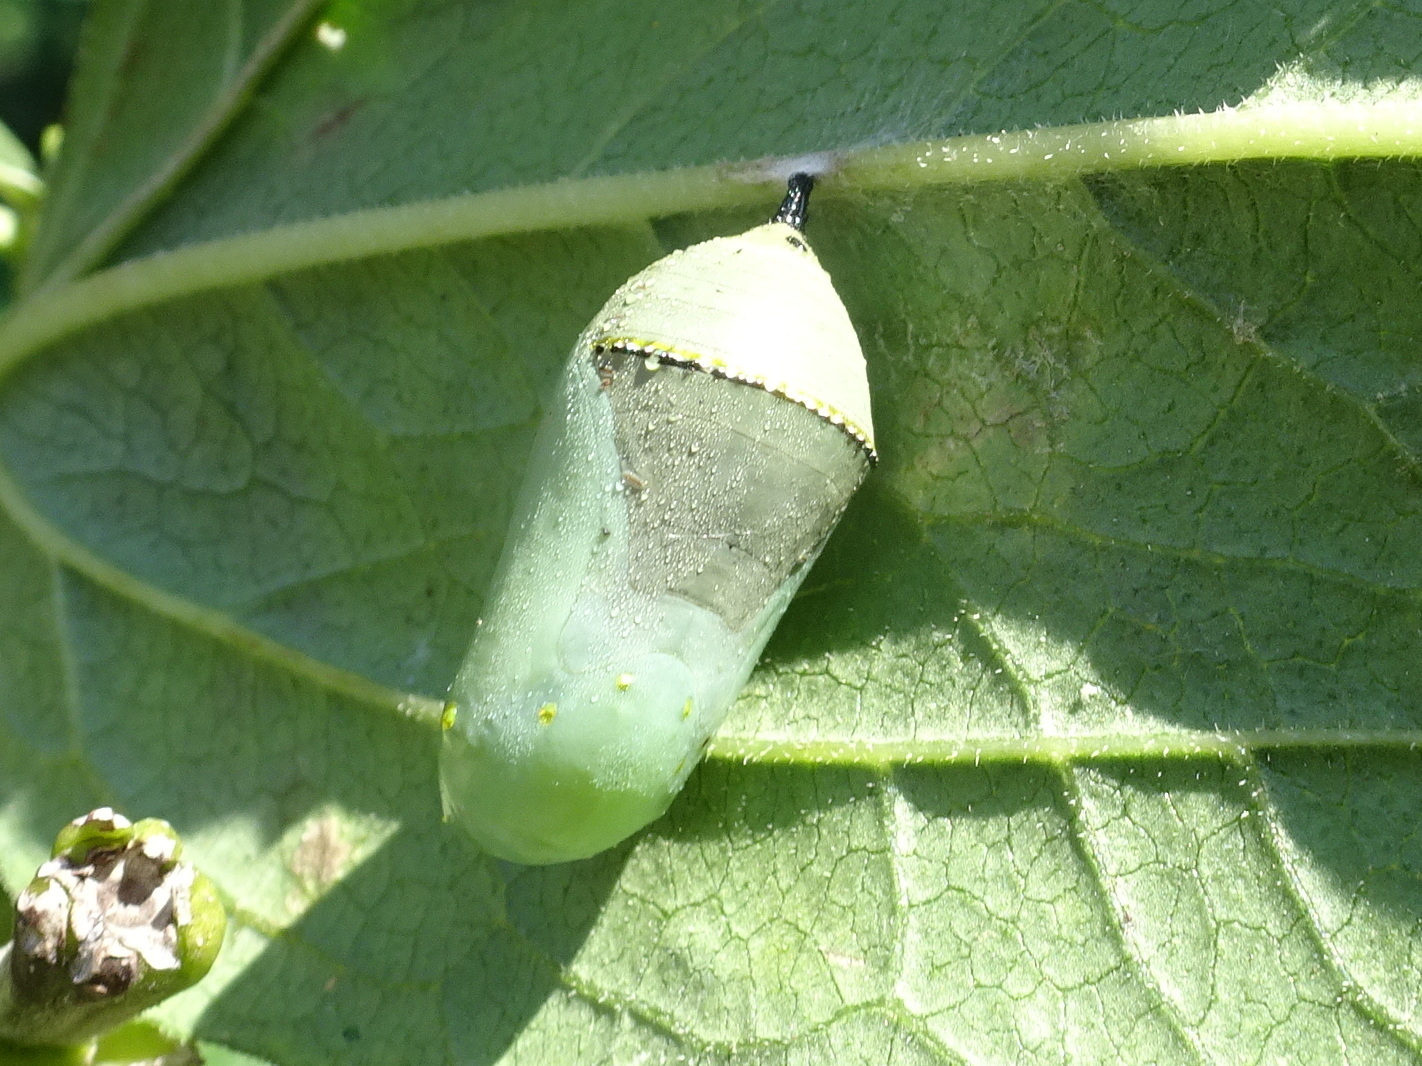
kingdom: Animalia
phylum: Arthropoda
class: Insecta
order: Lepidoptera
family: Nymphalidae
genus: Danaus
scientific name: Danaus plexippus
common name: Monarch
